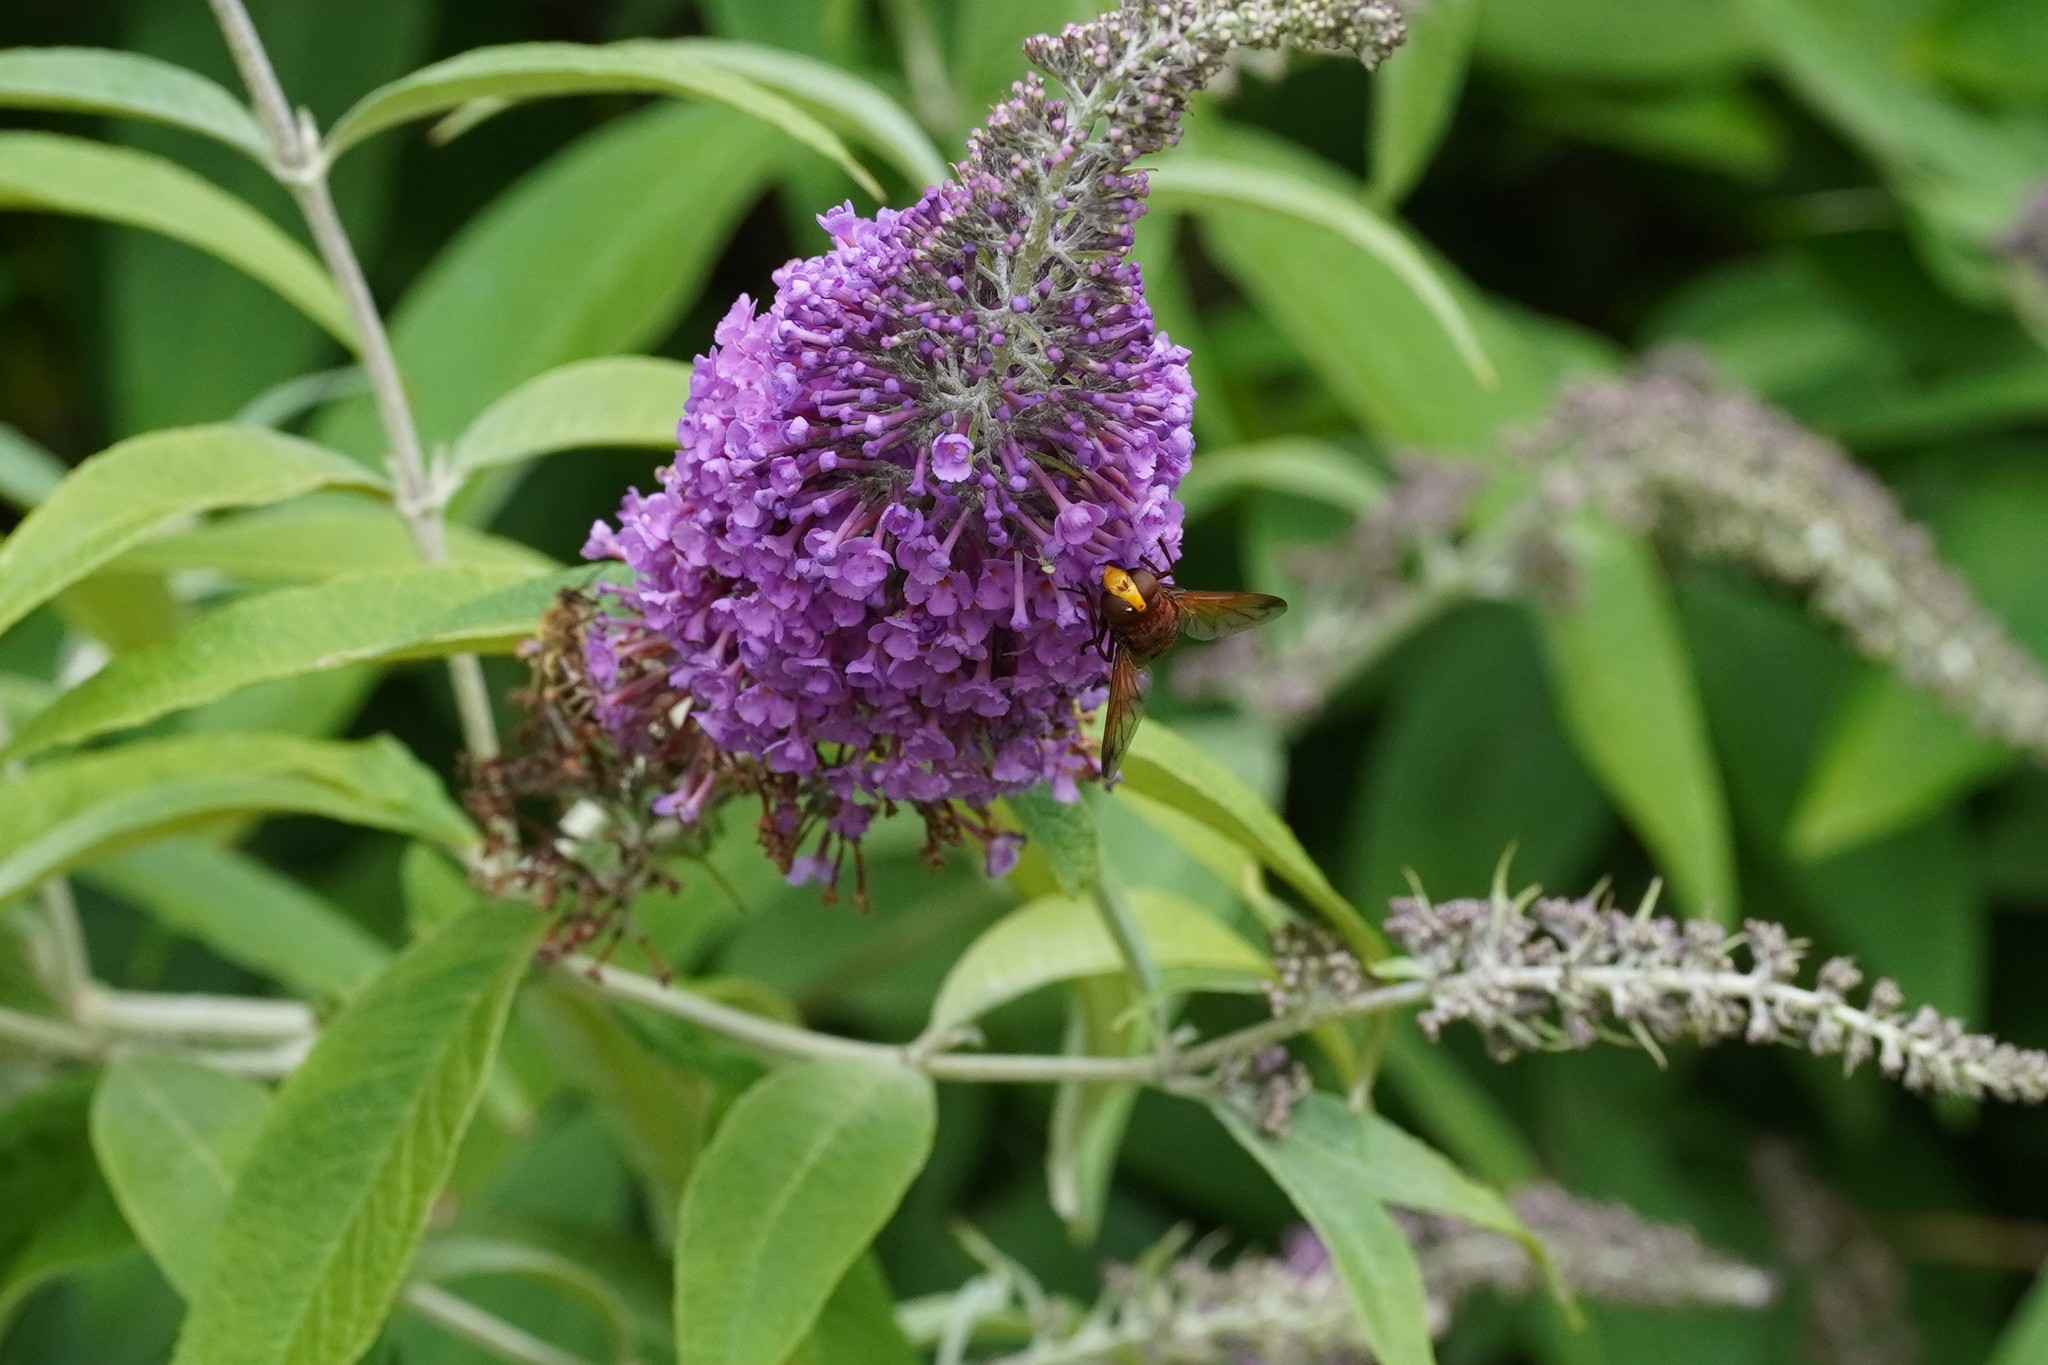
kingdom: Animalia
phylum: Arthropoda
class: Insecta
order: Diptera
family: Syrphidae
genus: Volucella
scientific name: Volucella zonaria
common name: Hornet hoverfly
